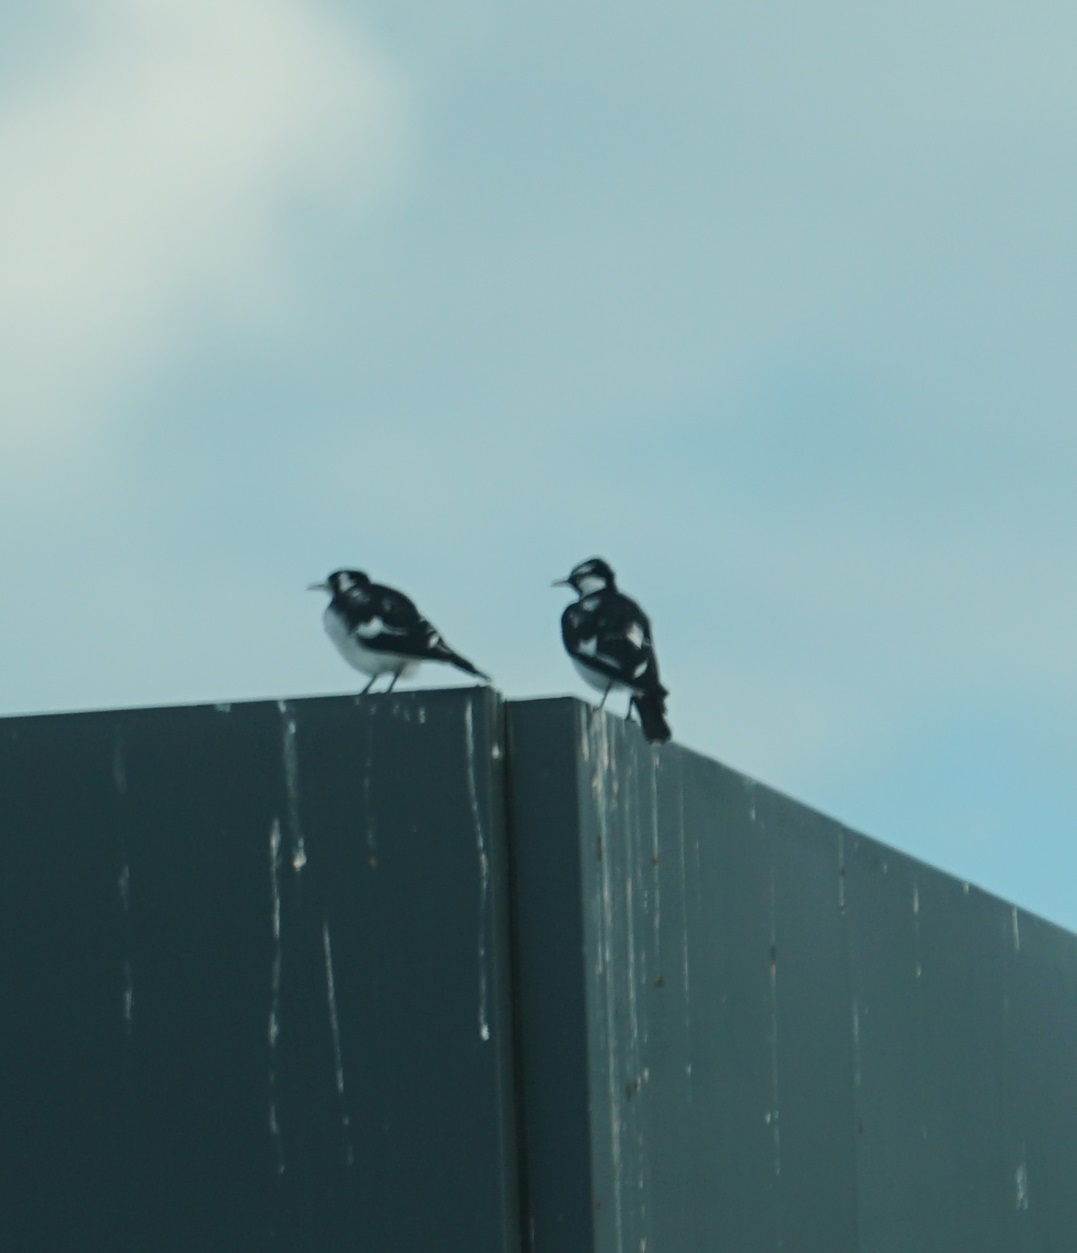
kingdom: Animalia
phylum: Chordata
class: Aves
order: Passeriformes
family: Monarchidae
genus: Grallina
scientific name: Grallina cyanoleuca
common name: Magpie-lark
